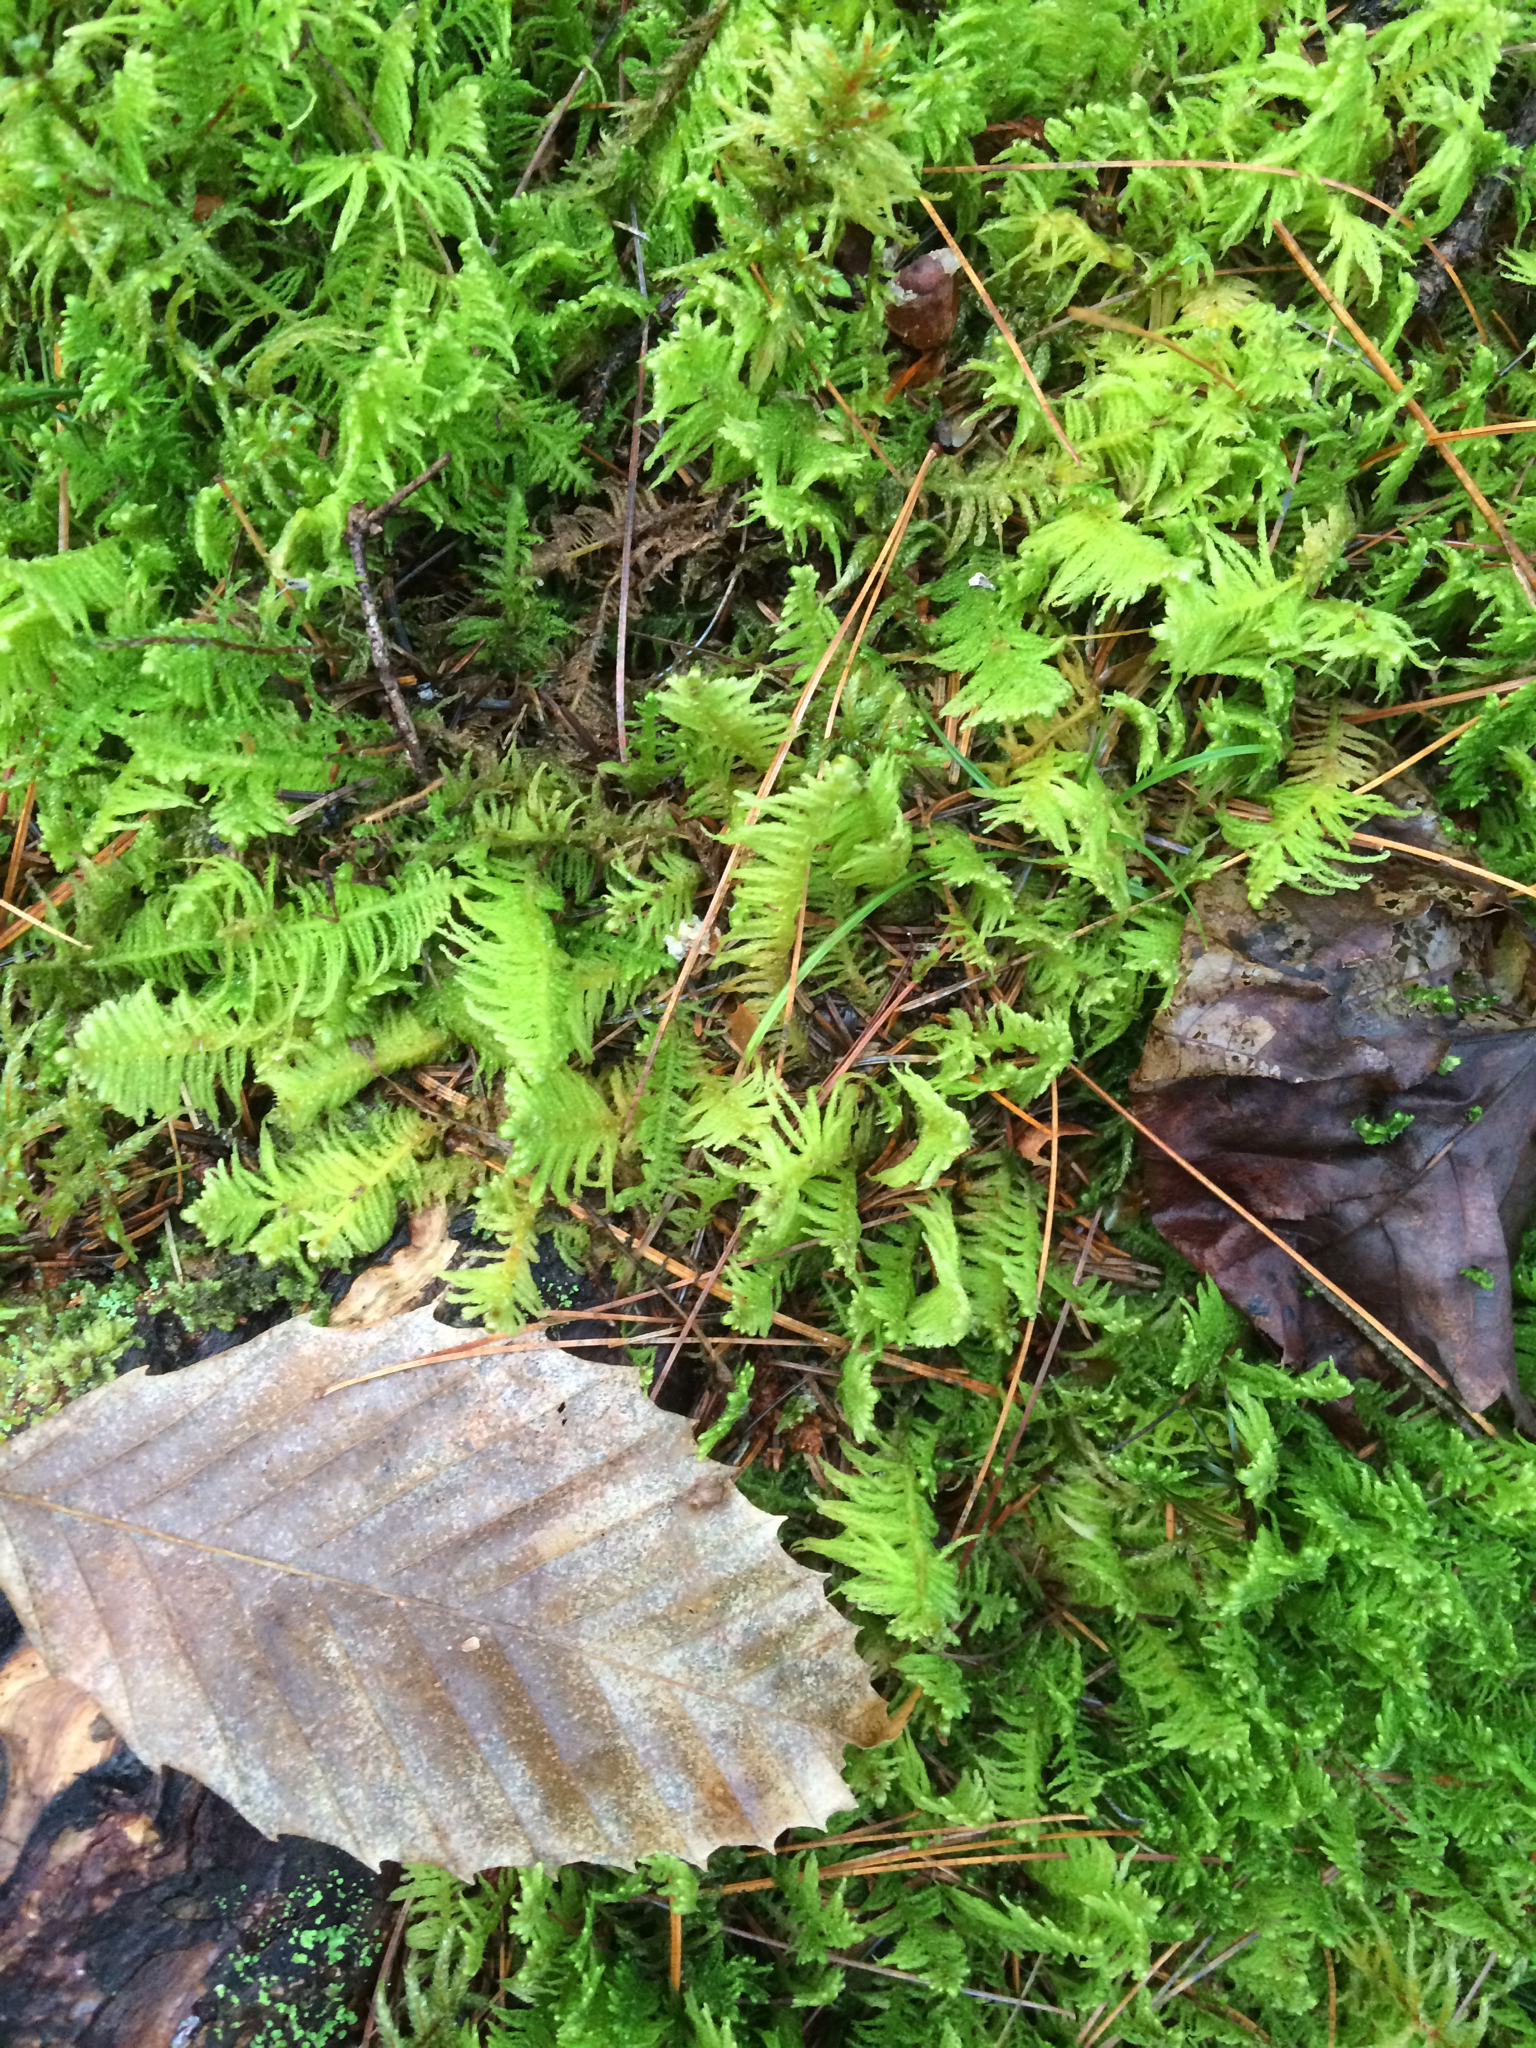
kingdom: Plantae
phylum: Bryophyta
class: Bryopsida
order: Hypnales
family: Pylaisiaceae
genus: Ptilium
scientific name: Ptilium crista-castrensis
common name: Knight's plume moss
